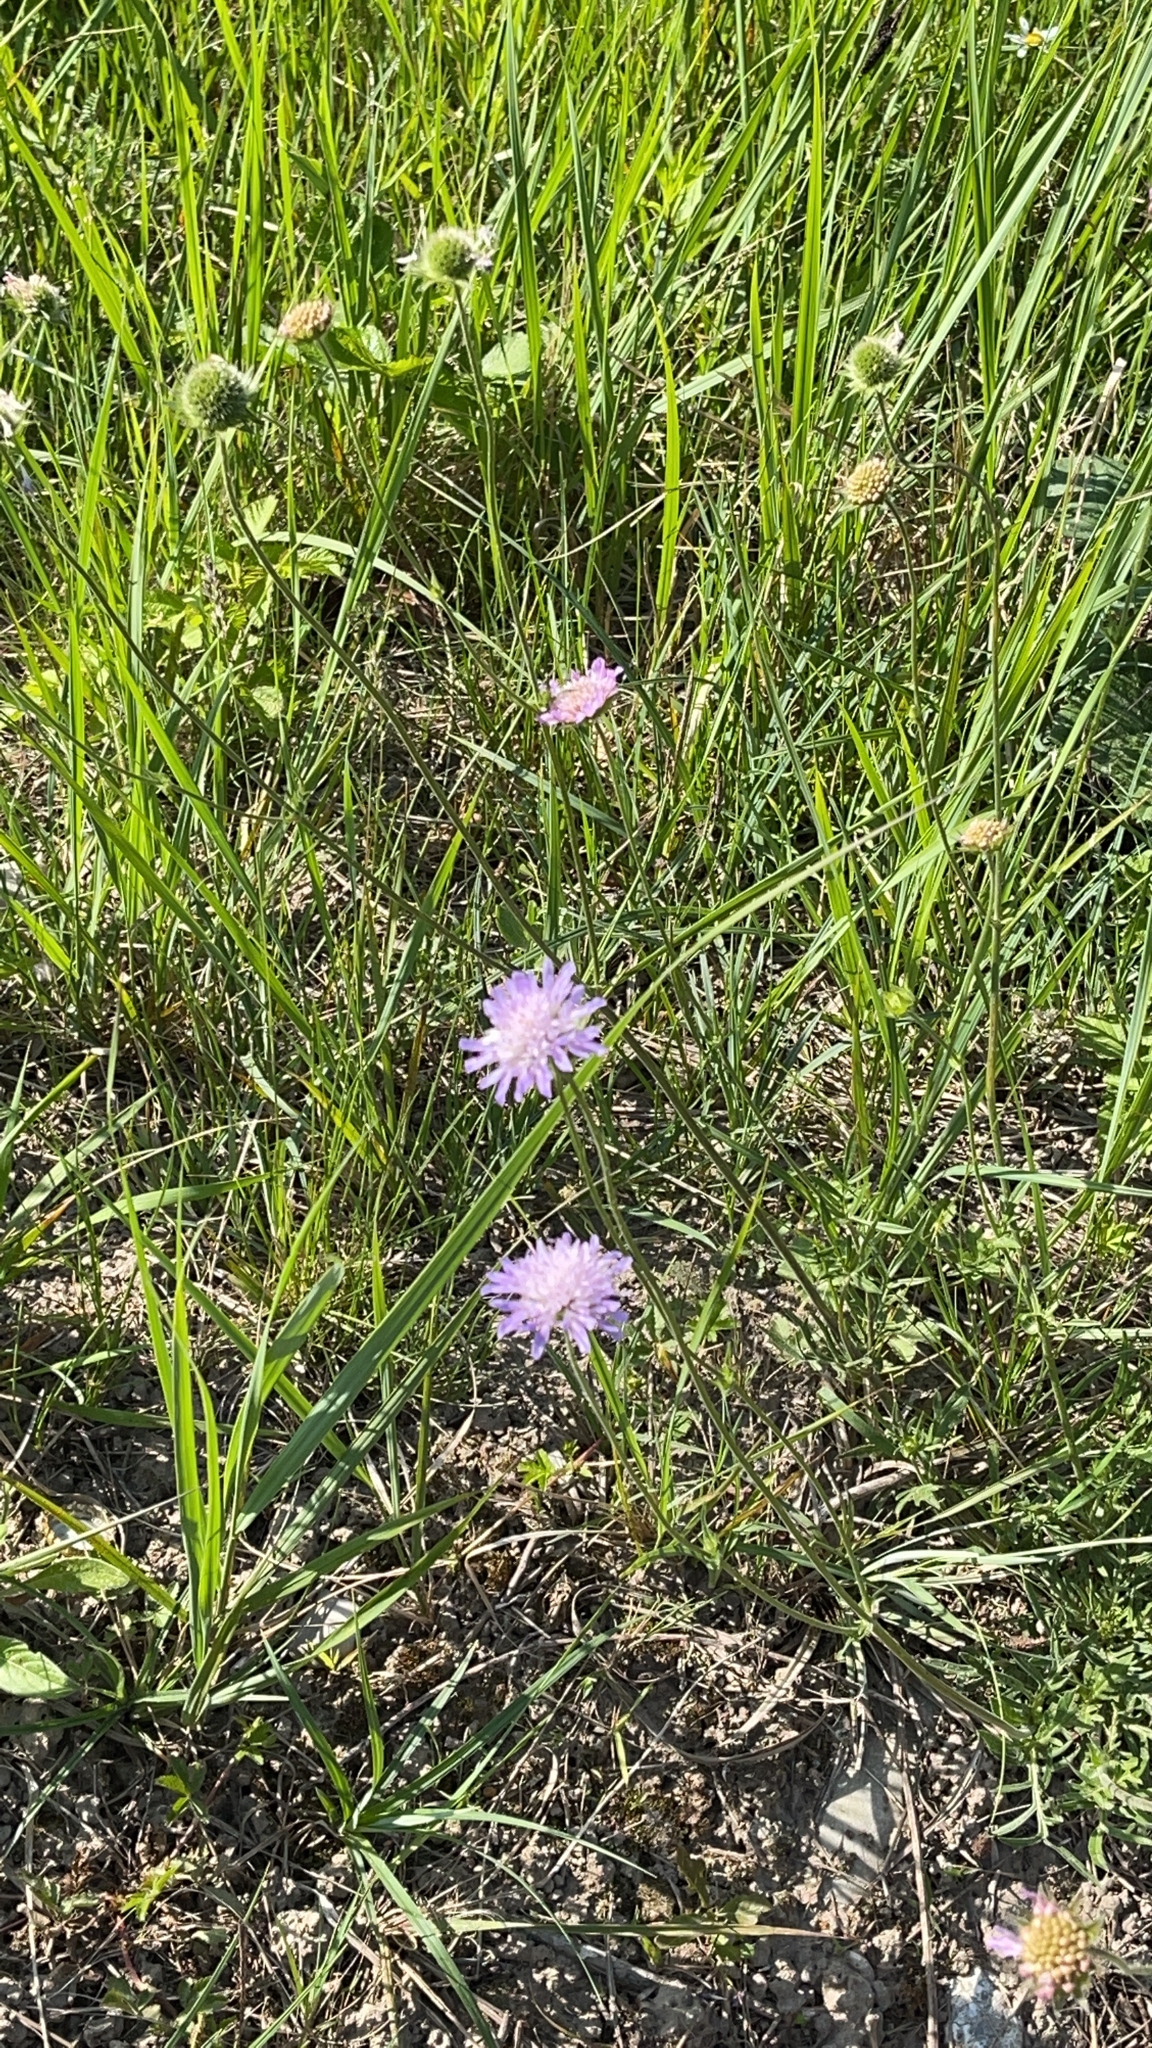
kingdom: Plantae
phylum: Tracheophyta
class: Magnoliopsida
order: Dipsacales
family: Caprifoliaceae
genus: Knautia
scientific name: Knautia arvensis
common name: Field scabiosa
